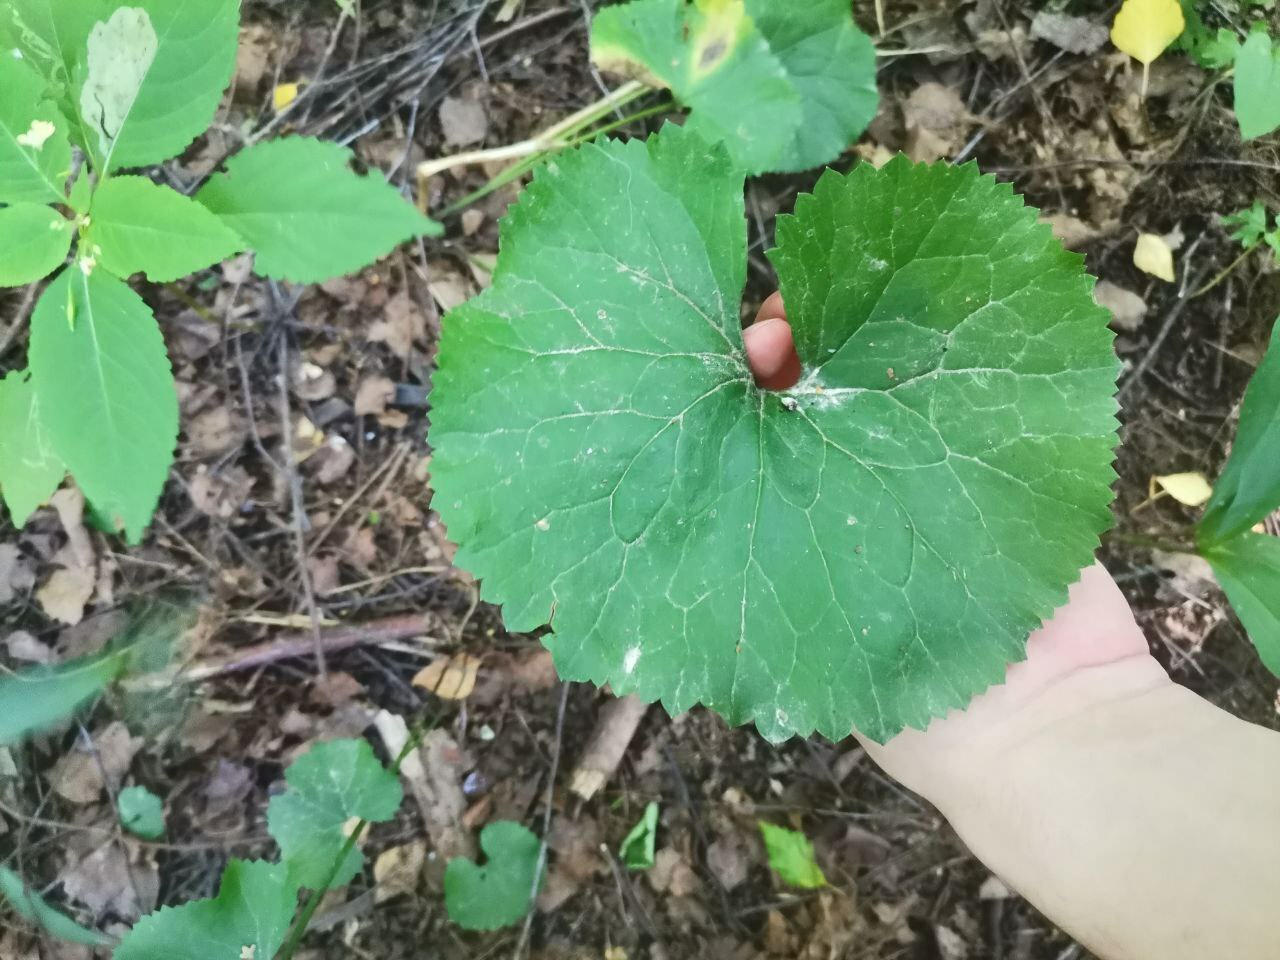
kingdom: Plantae
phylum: Tracheophyta
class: Magnoliopsida
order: Ranunculales
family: Ranunculaceae
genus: Ranunculus
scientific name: Ranunculus cassubicus
